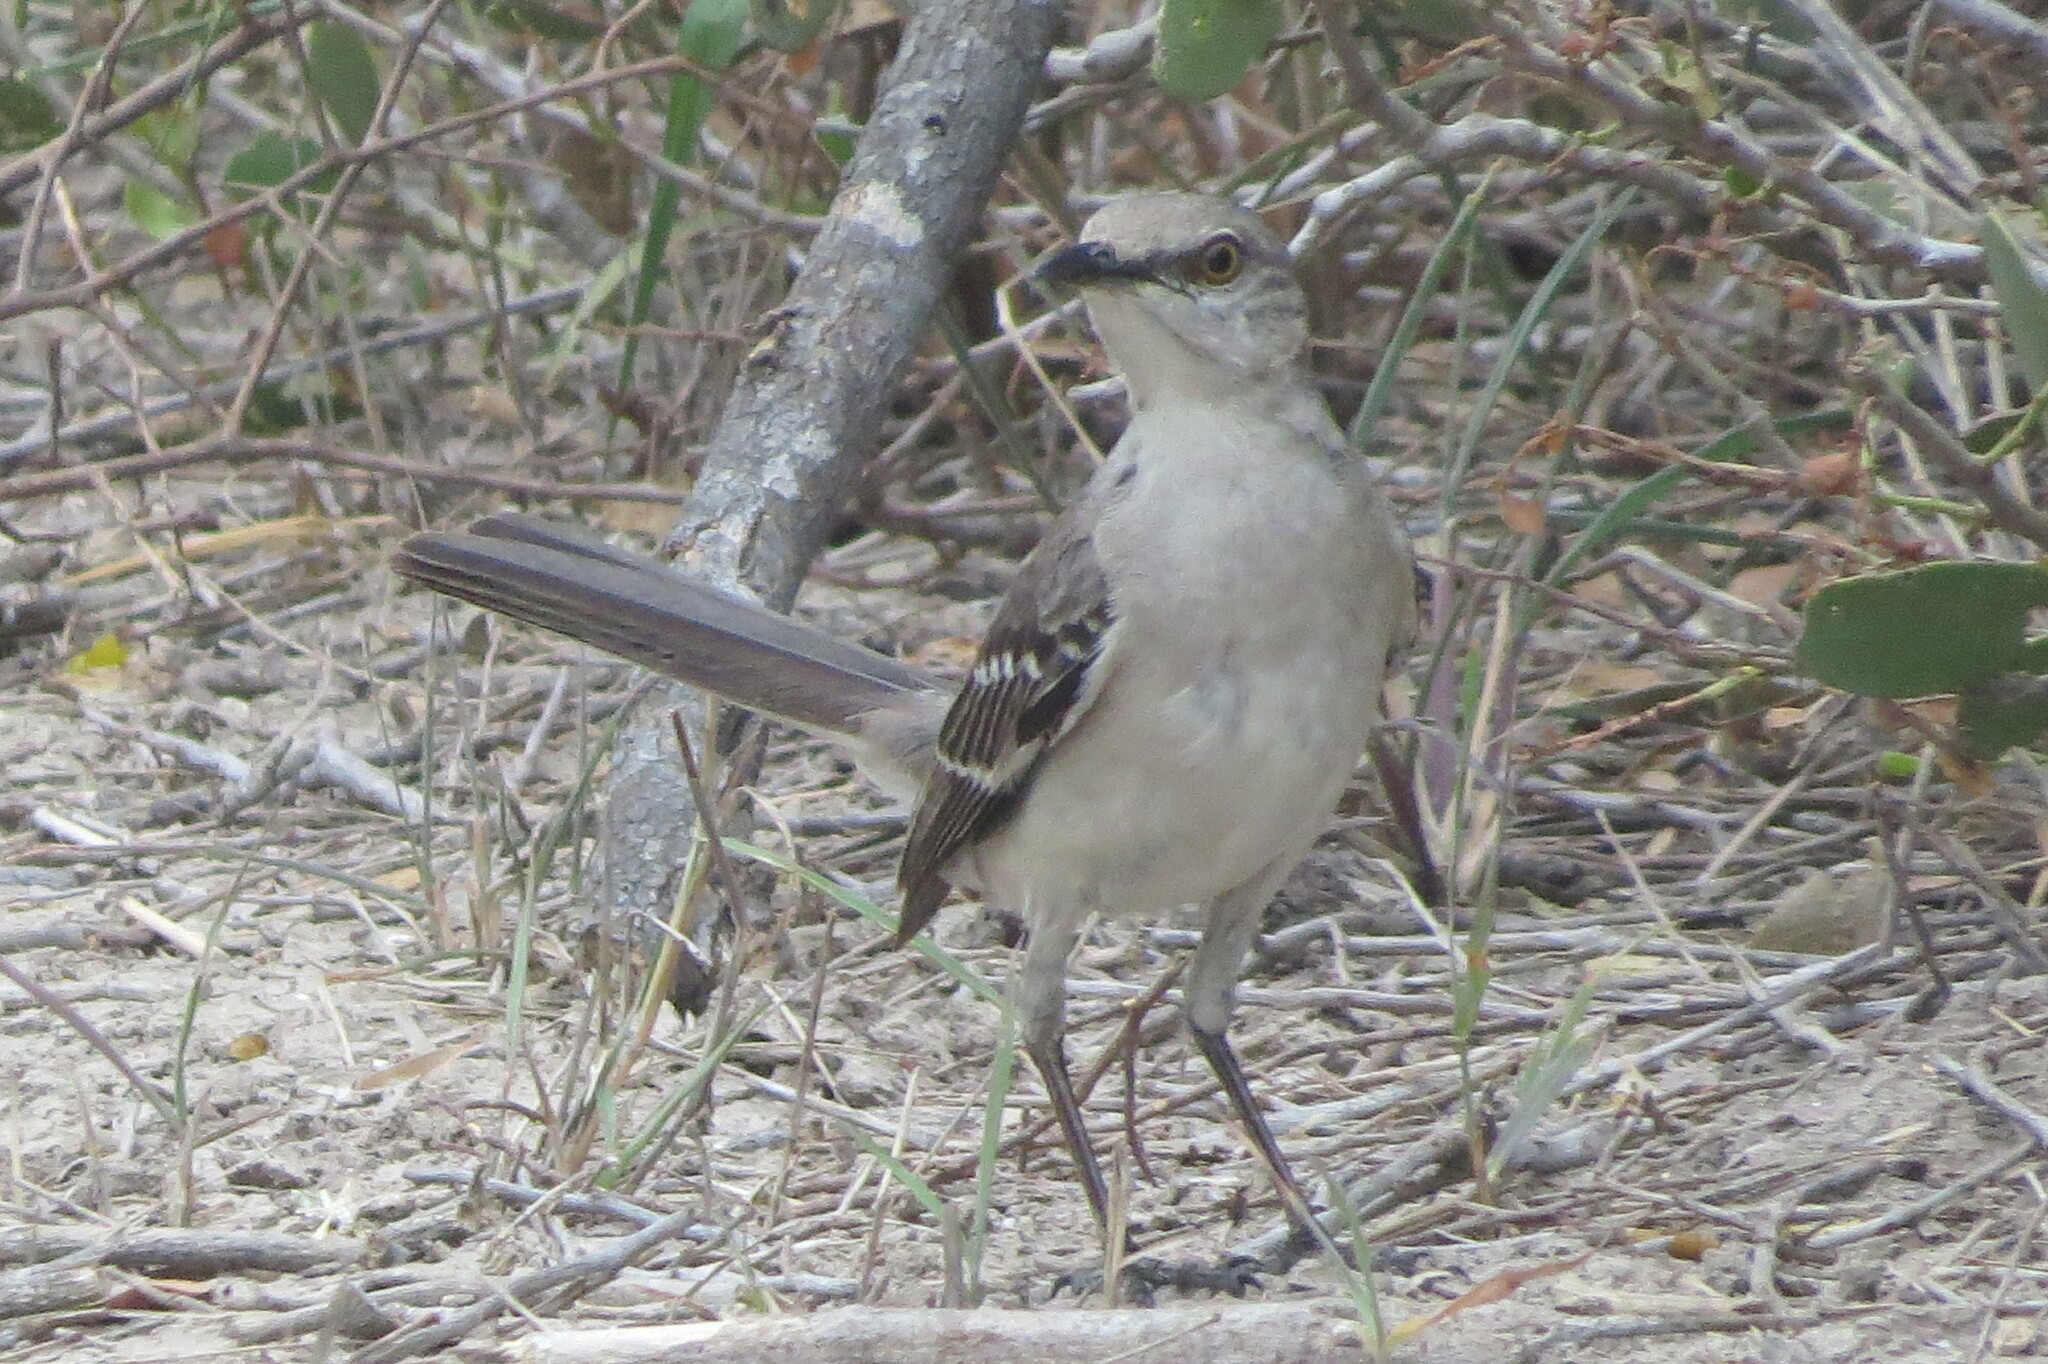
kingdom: Animalia
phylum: Chordata
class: Aves
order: Passeriformes
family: Mimidae
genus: Mimus
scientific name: Mimus polyglottos
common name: Northern mockingbird
